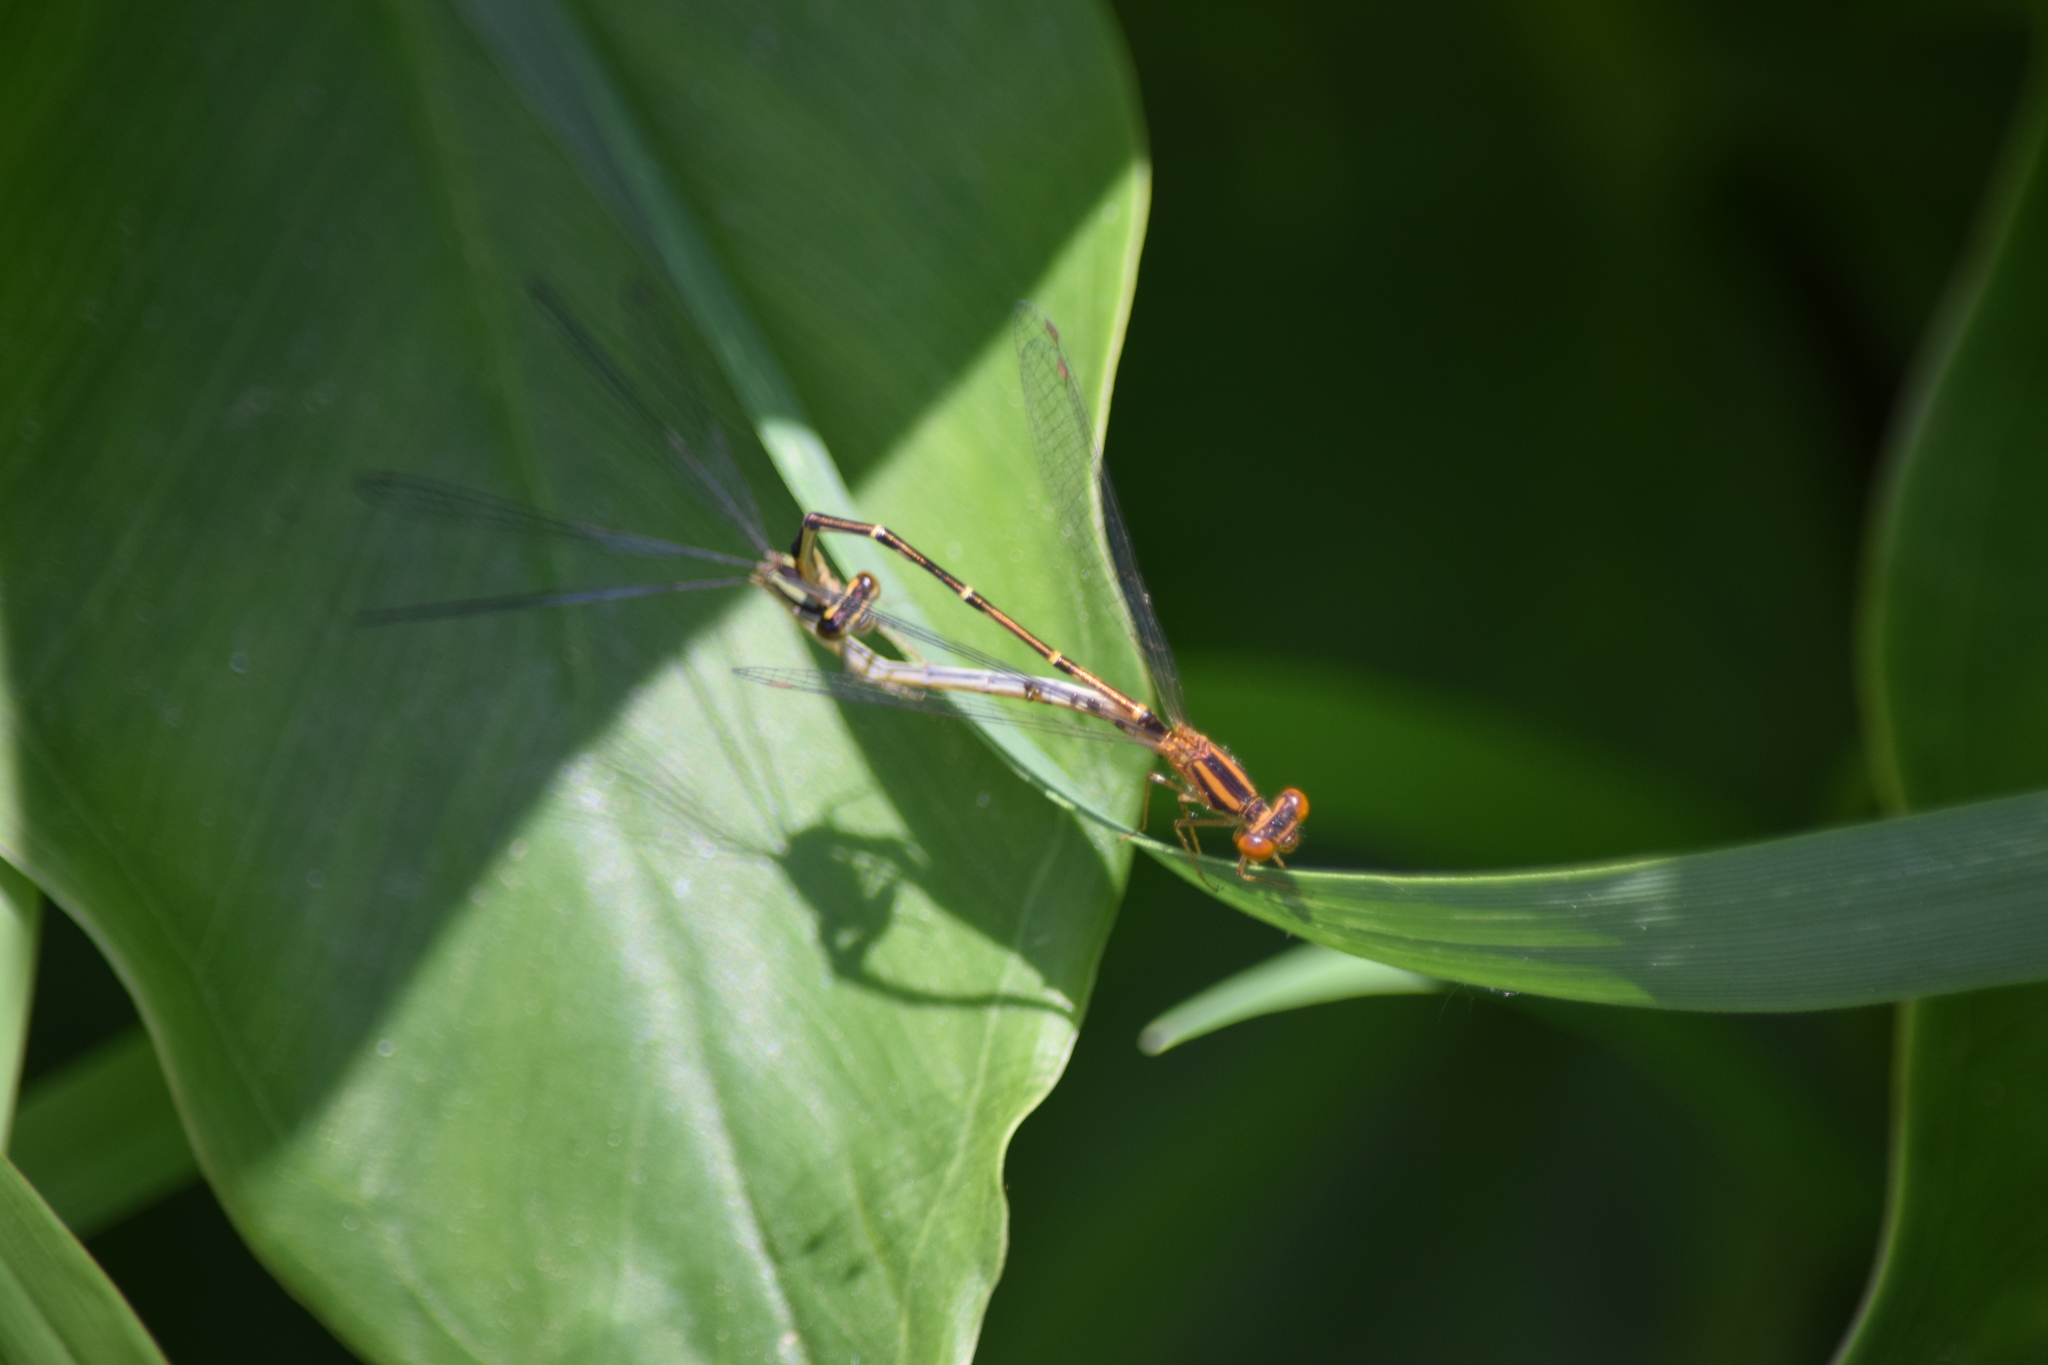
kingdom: Animalia
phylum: Arthropoda
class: Insecta
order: Odonata
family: Coenagrionidae
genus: Enallagma
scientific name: Enallagma signatum
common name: Orange bluet
